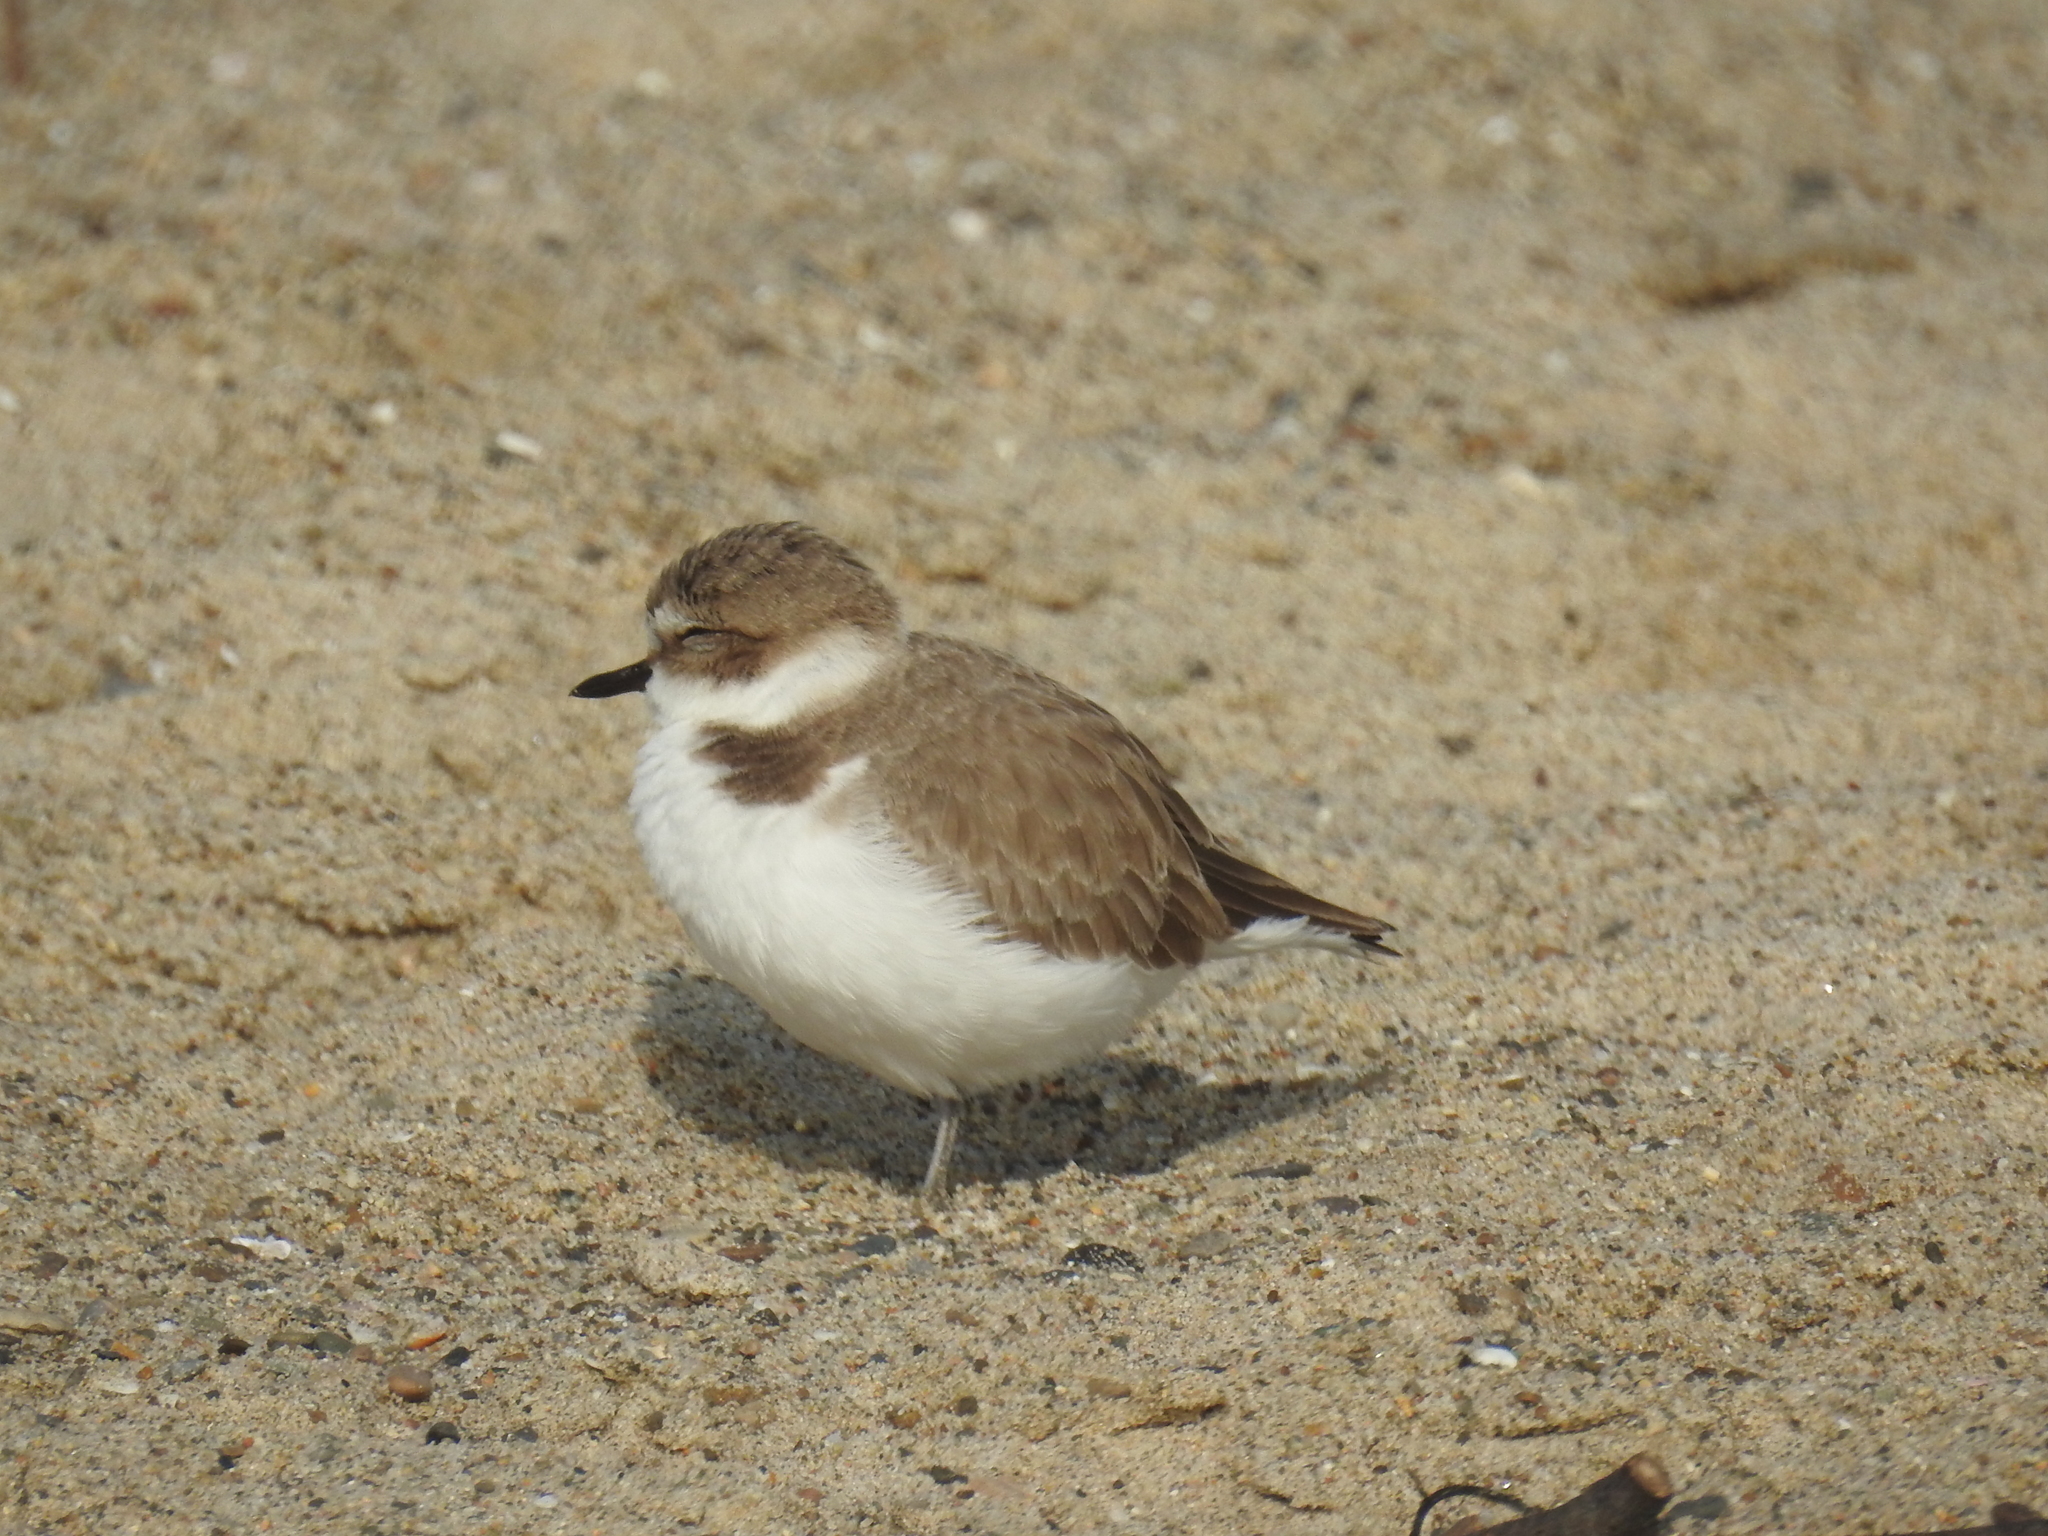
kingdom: Animalia
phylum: Chordata
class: Aves
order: Charadriiformes
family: Charadriidae
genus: Anarhynchus
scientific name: Anarhynchus
